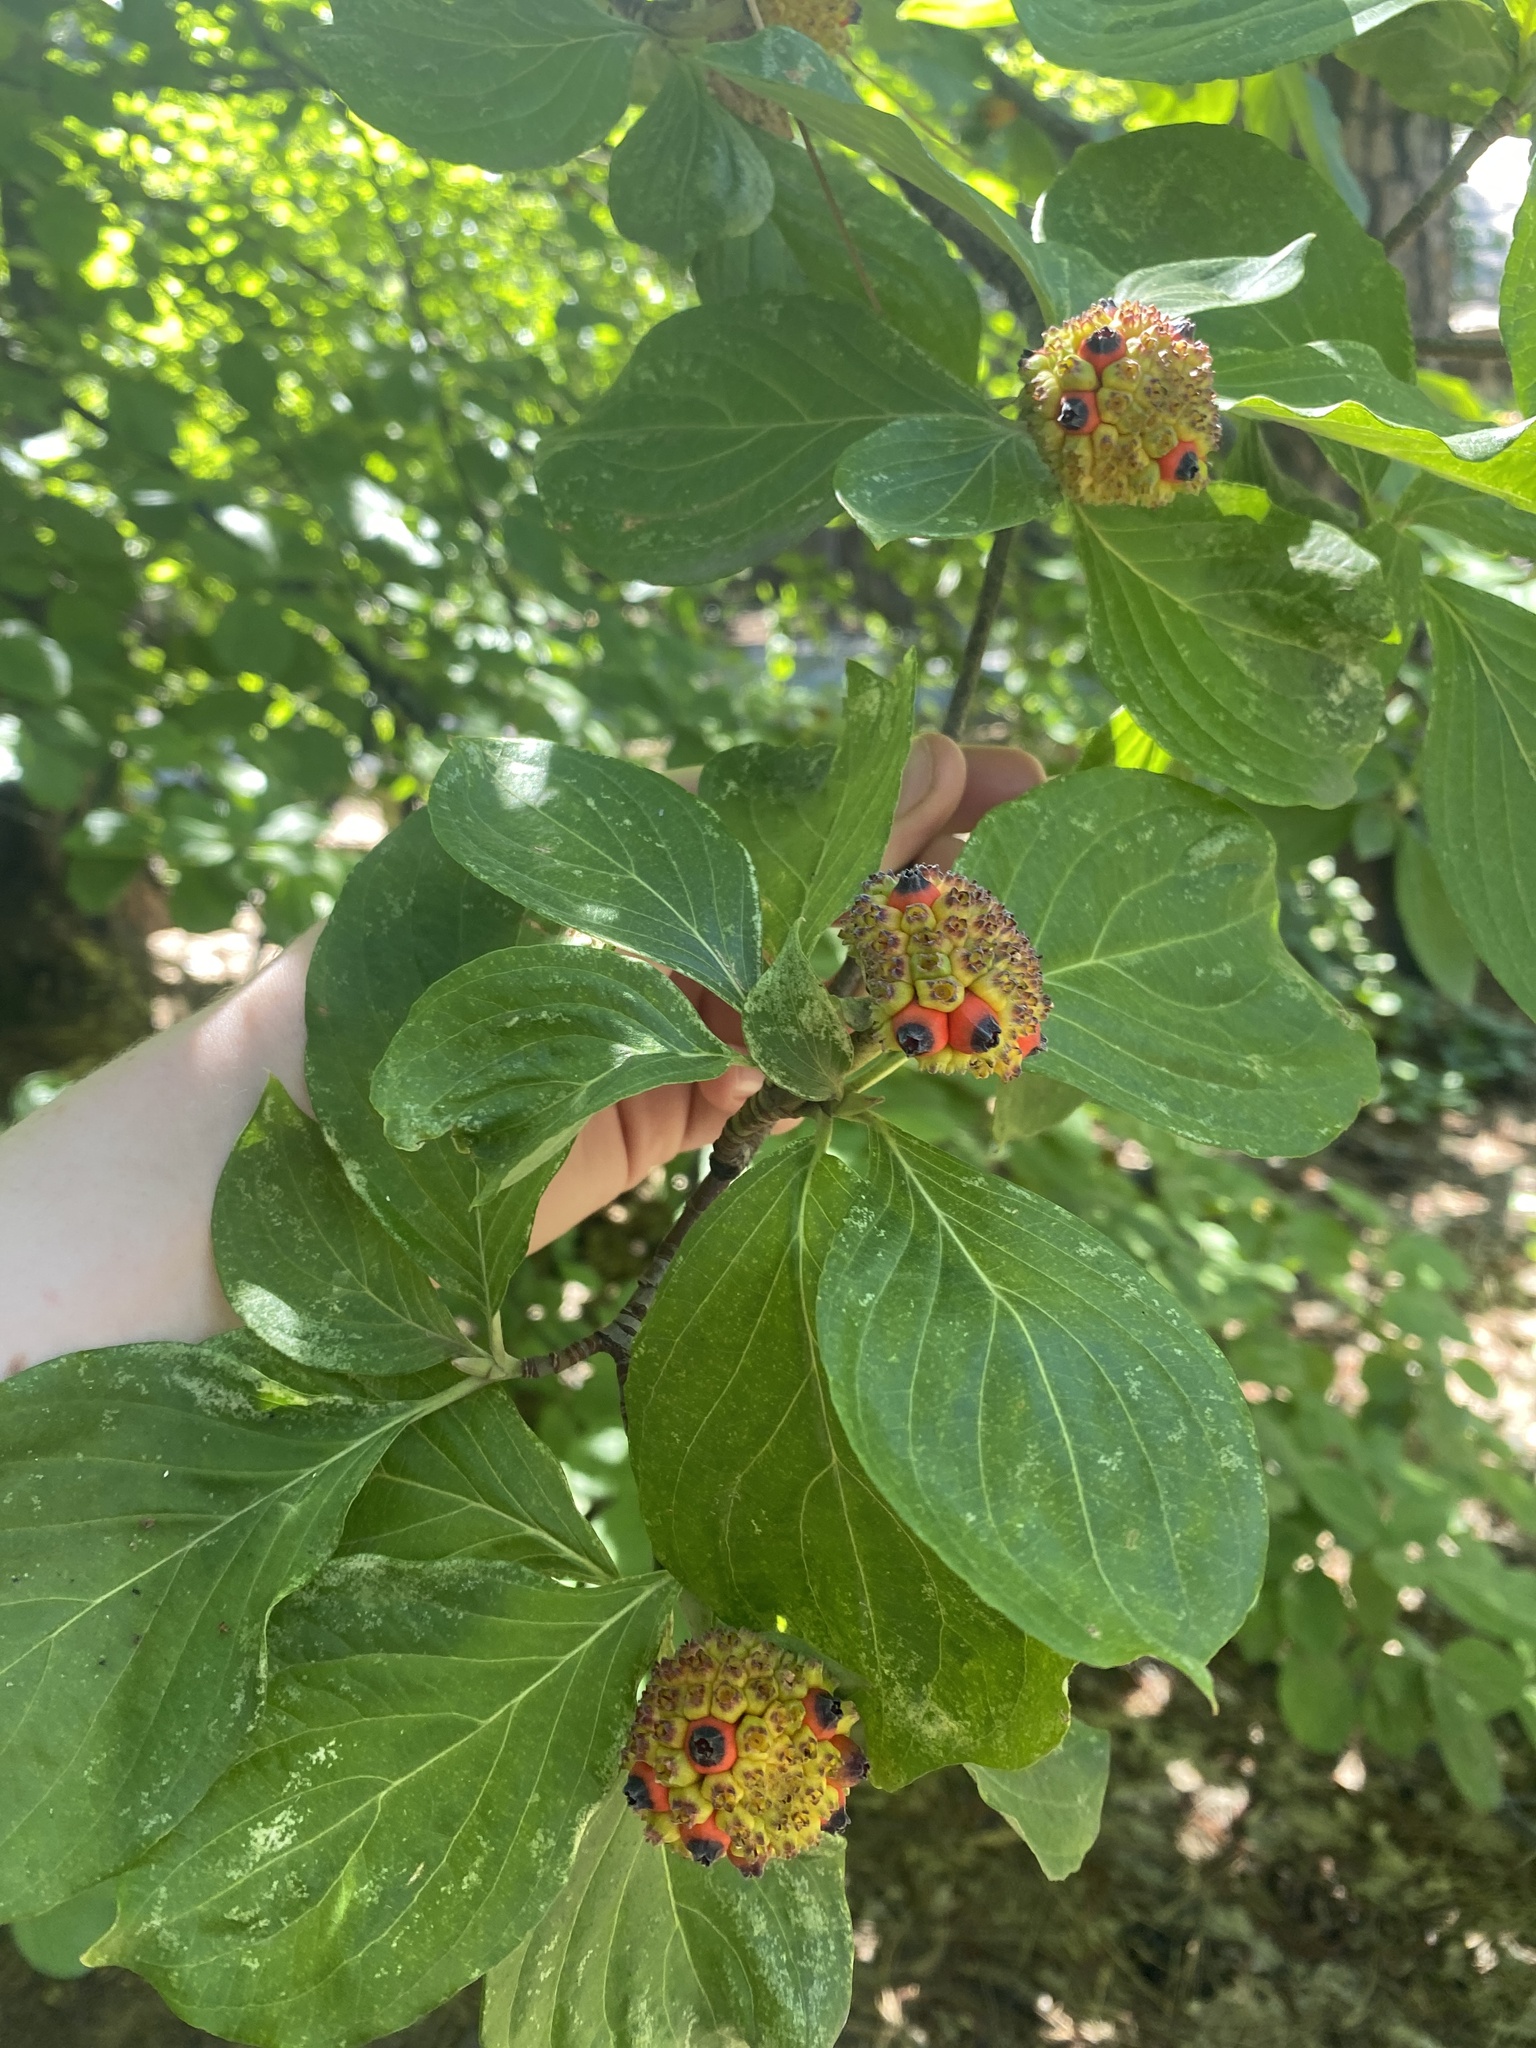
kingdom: Plantae
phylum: Tracheophyta
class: Magnoliopsida
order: Cornales
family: Cornaceae
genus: Cornus
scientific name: Cornus nuttallii
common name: Pacific dogwood
